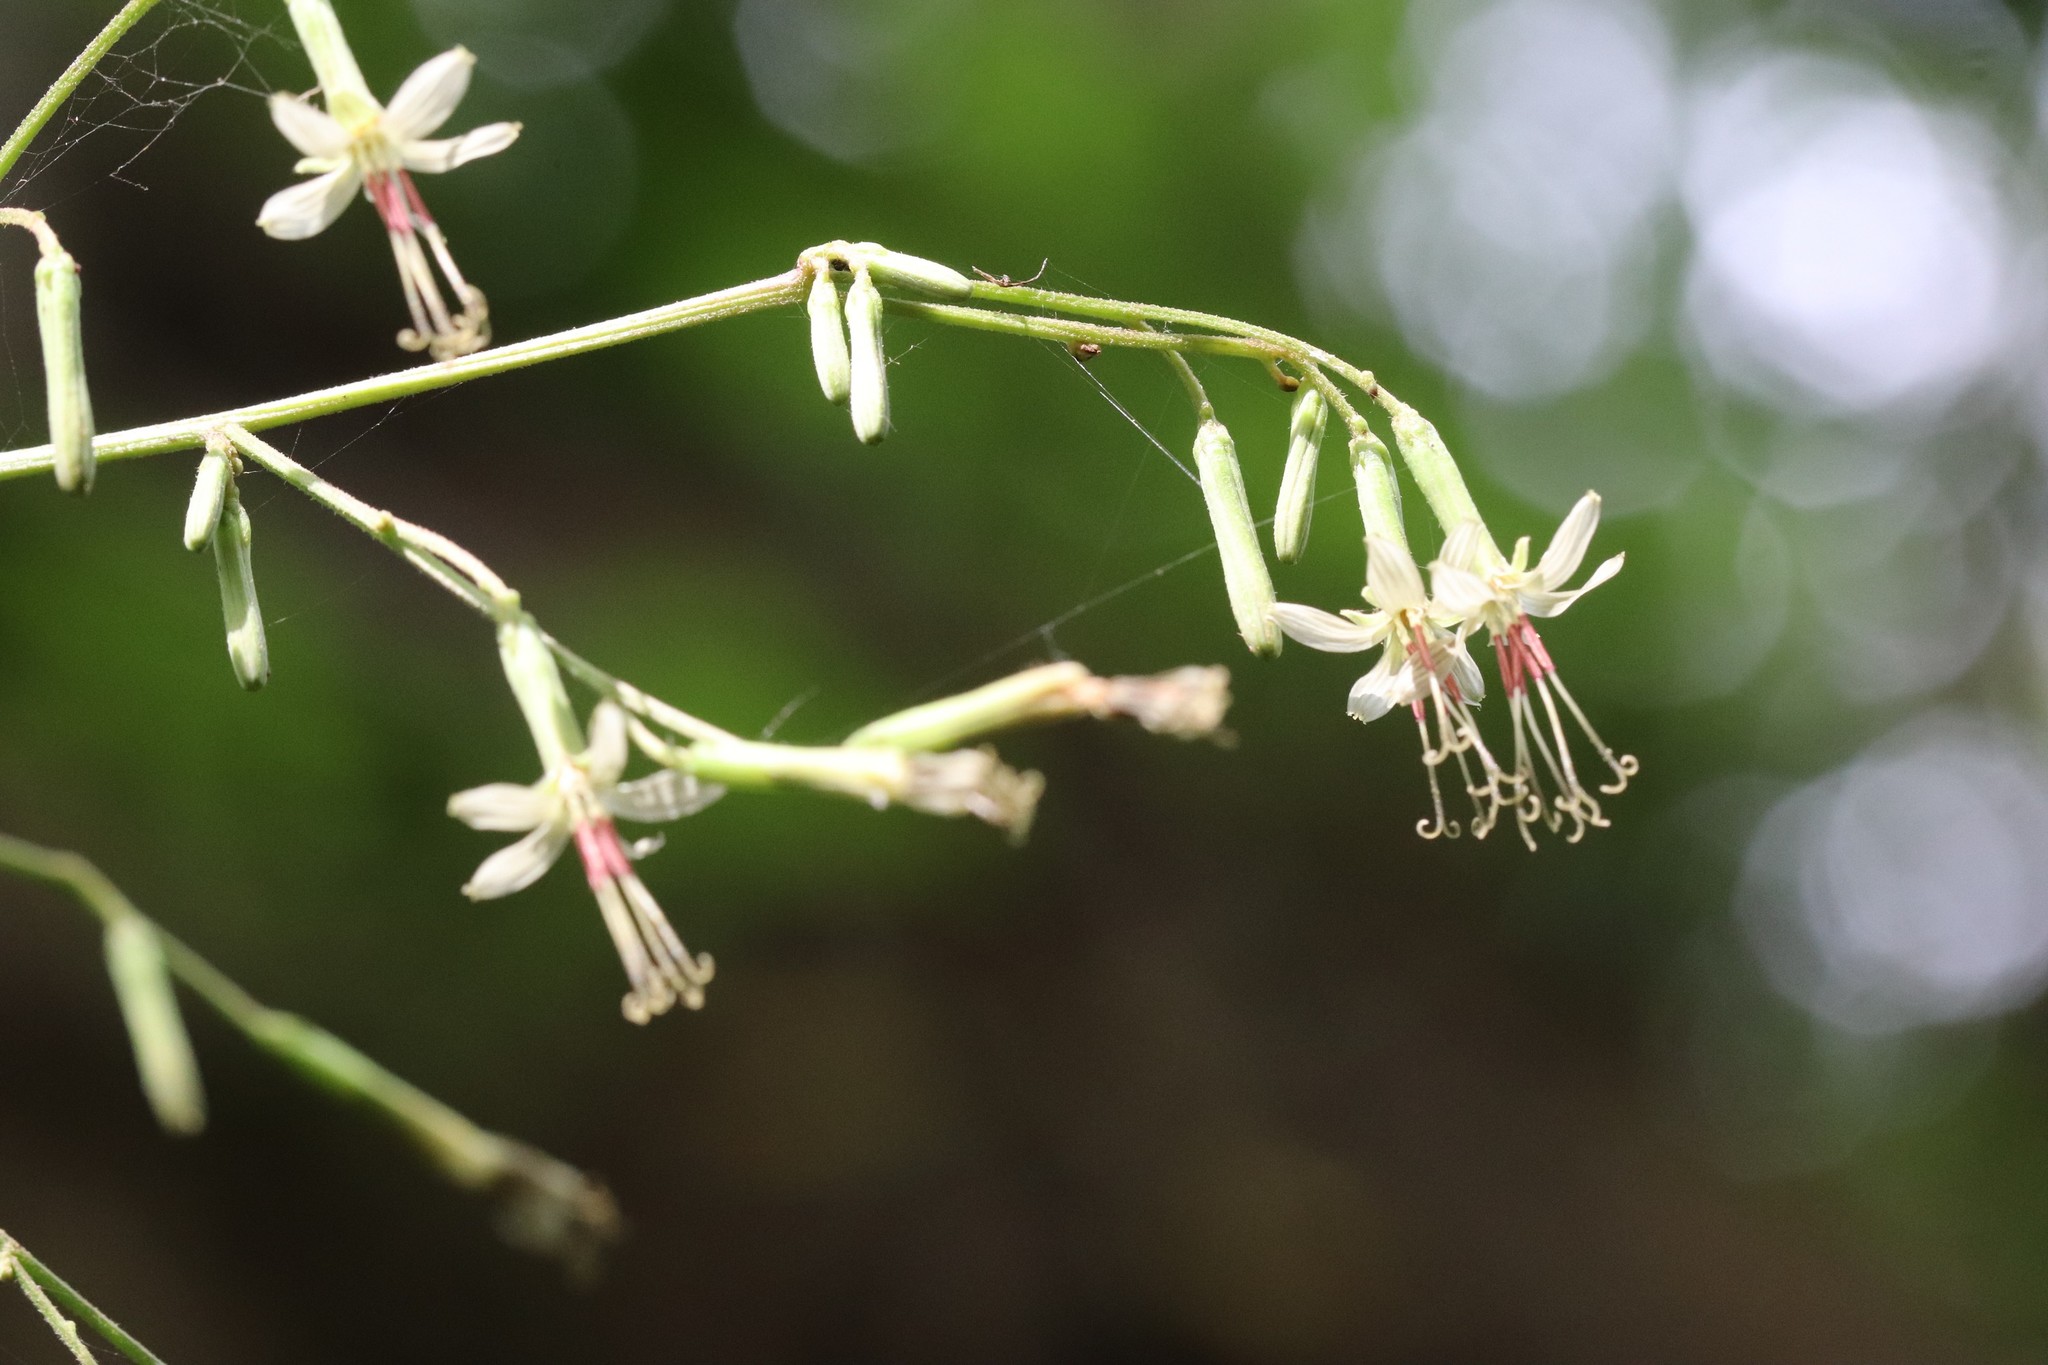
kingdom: Plantae
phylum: Tracheophyta
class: Magnoliopsida
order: Asterales
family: Asteraceae
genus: Nabalus
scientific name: Nabalus tatarinowii
